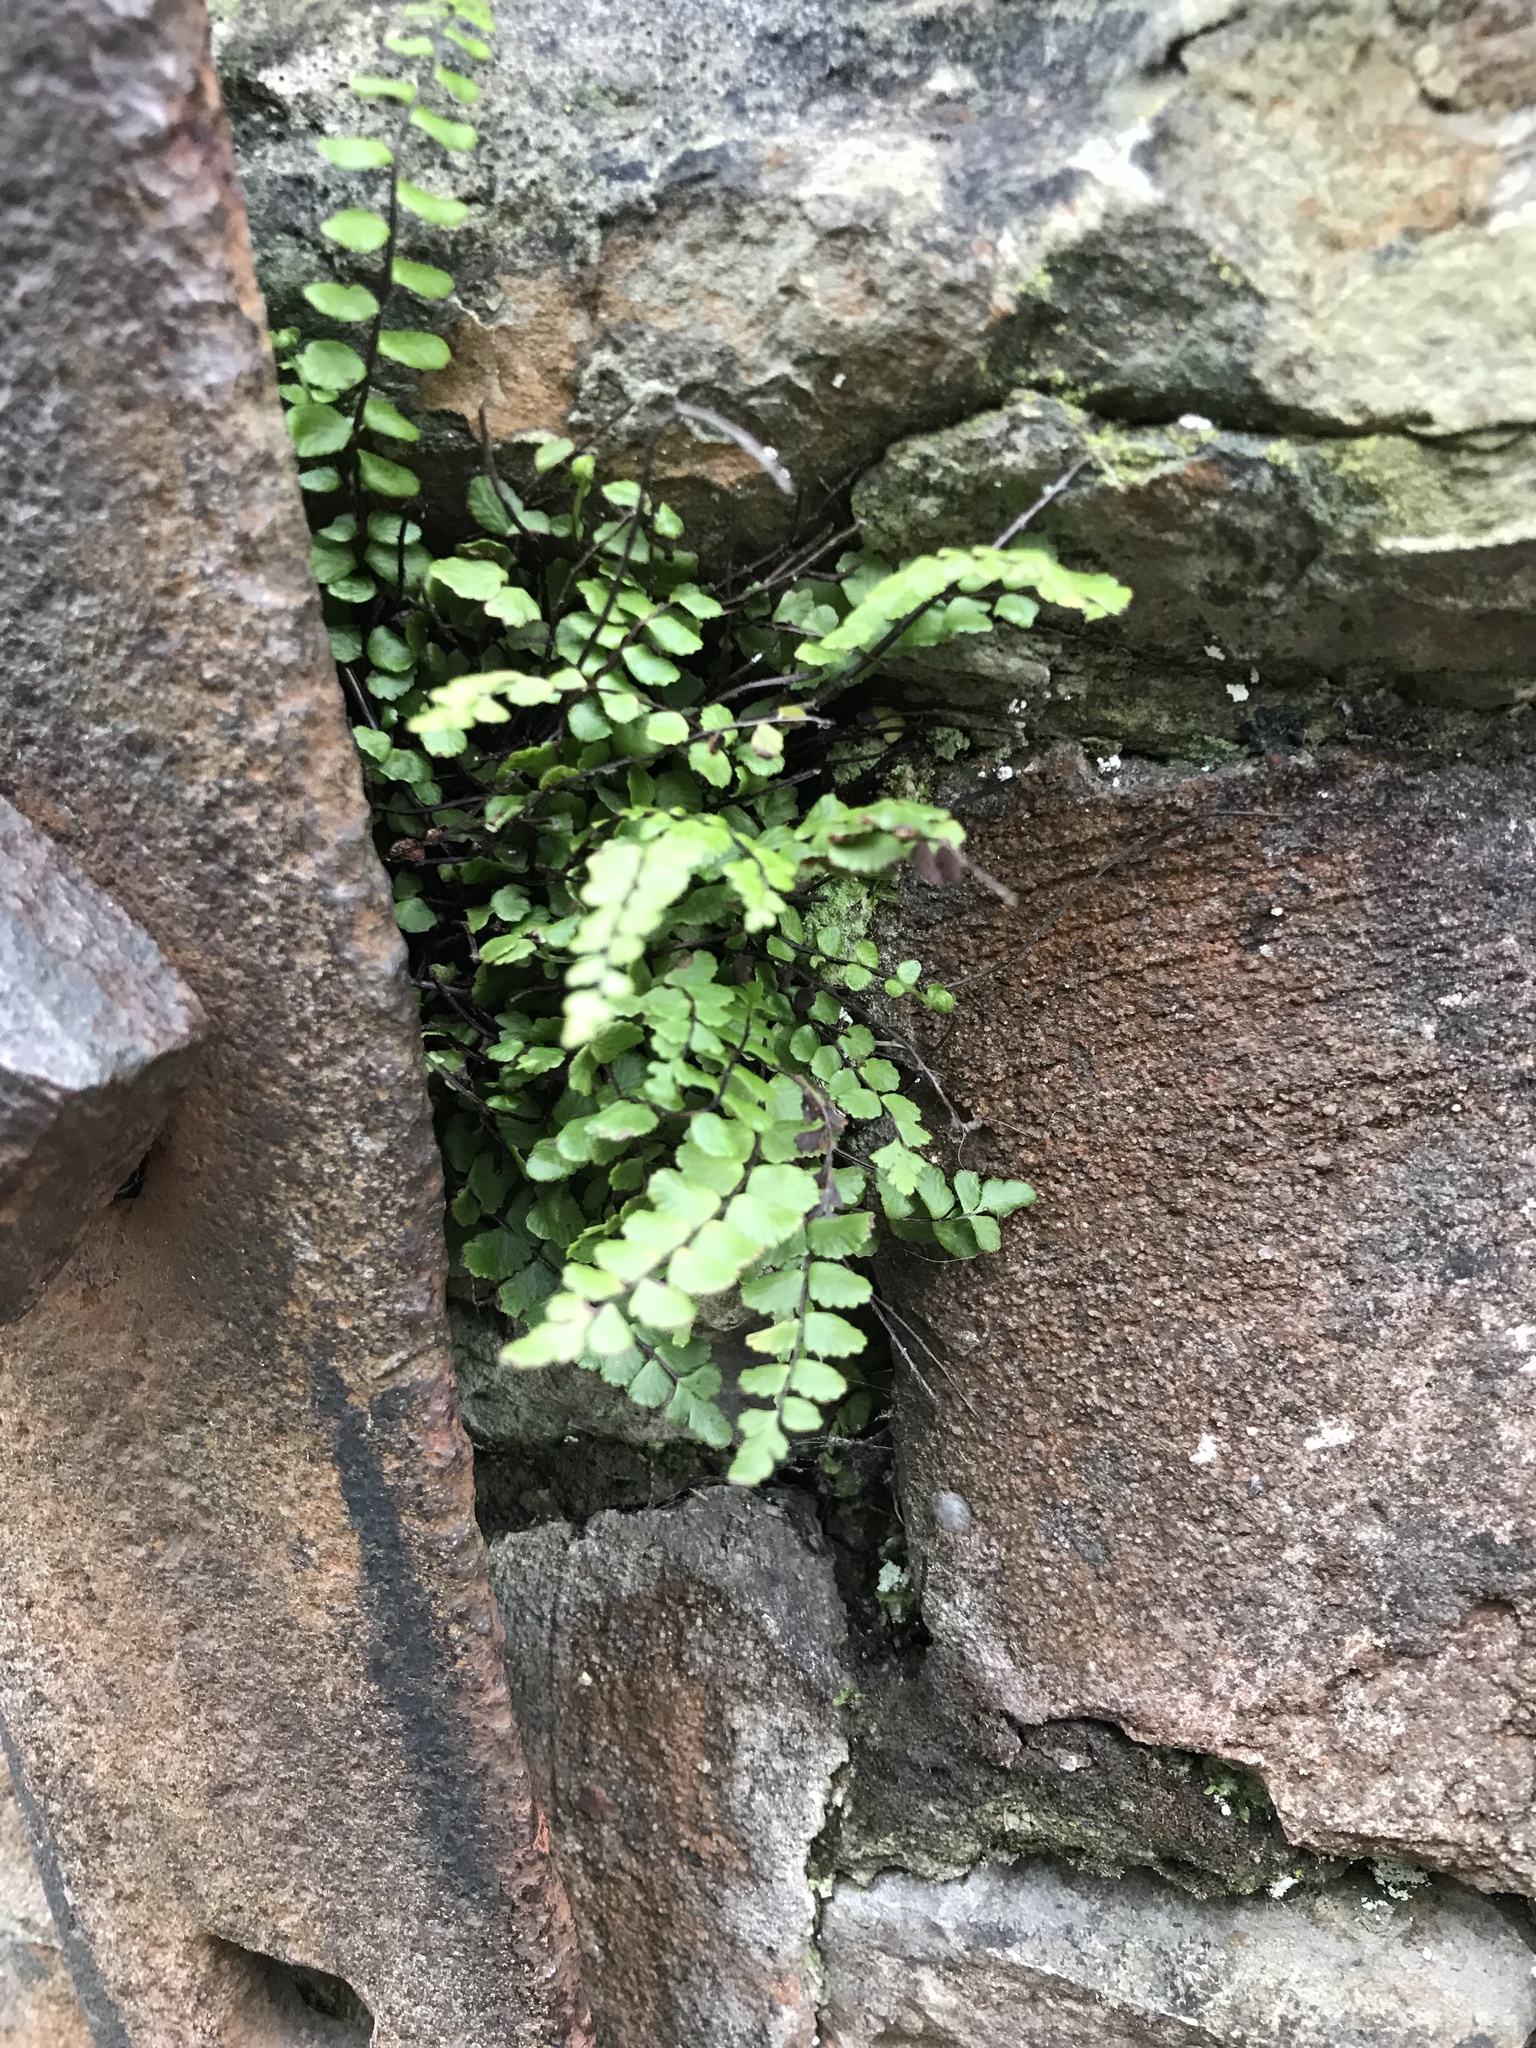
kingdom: Plantae
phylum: Tracheophyta
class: Polypodiopsida
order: Polypodiales
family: Aspleniaceae
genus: Asplenium
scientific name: Asplenium trichomanes
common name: Maidenhair spleenwort
